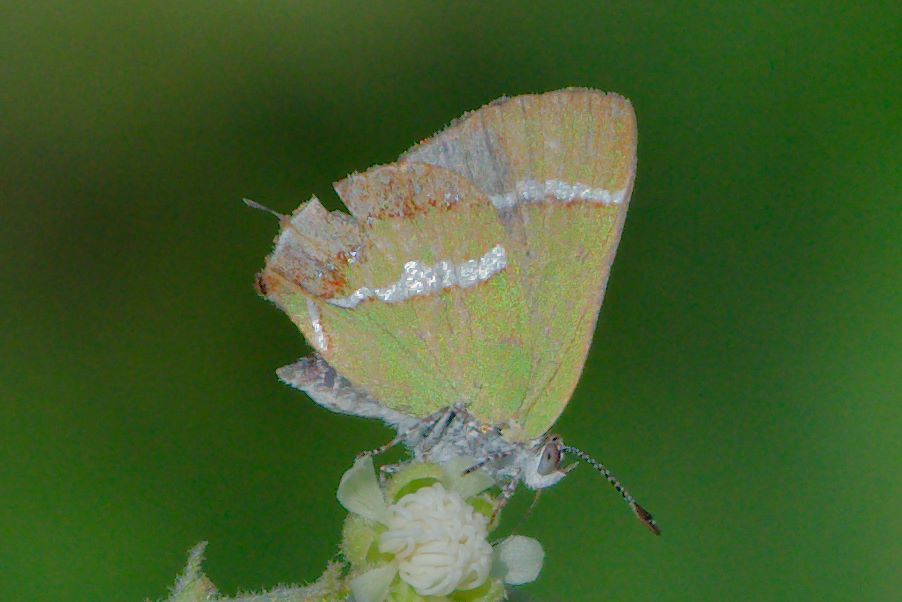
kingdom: Animalia
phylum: Arthropoda
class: Insecta
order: Lepidoptera
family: Lycaenidae
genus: Chlorostrymon
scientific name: Chlorostrymon simaethis
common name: Silver-banded hairstreak
